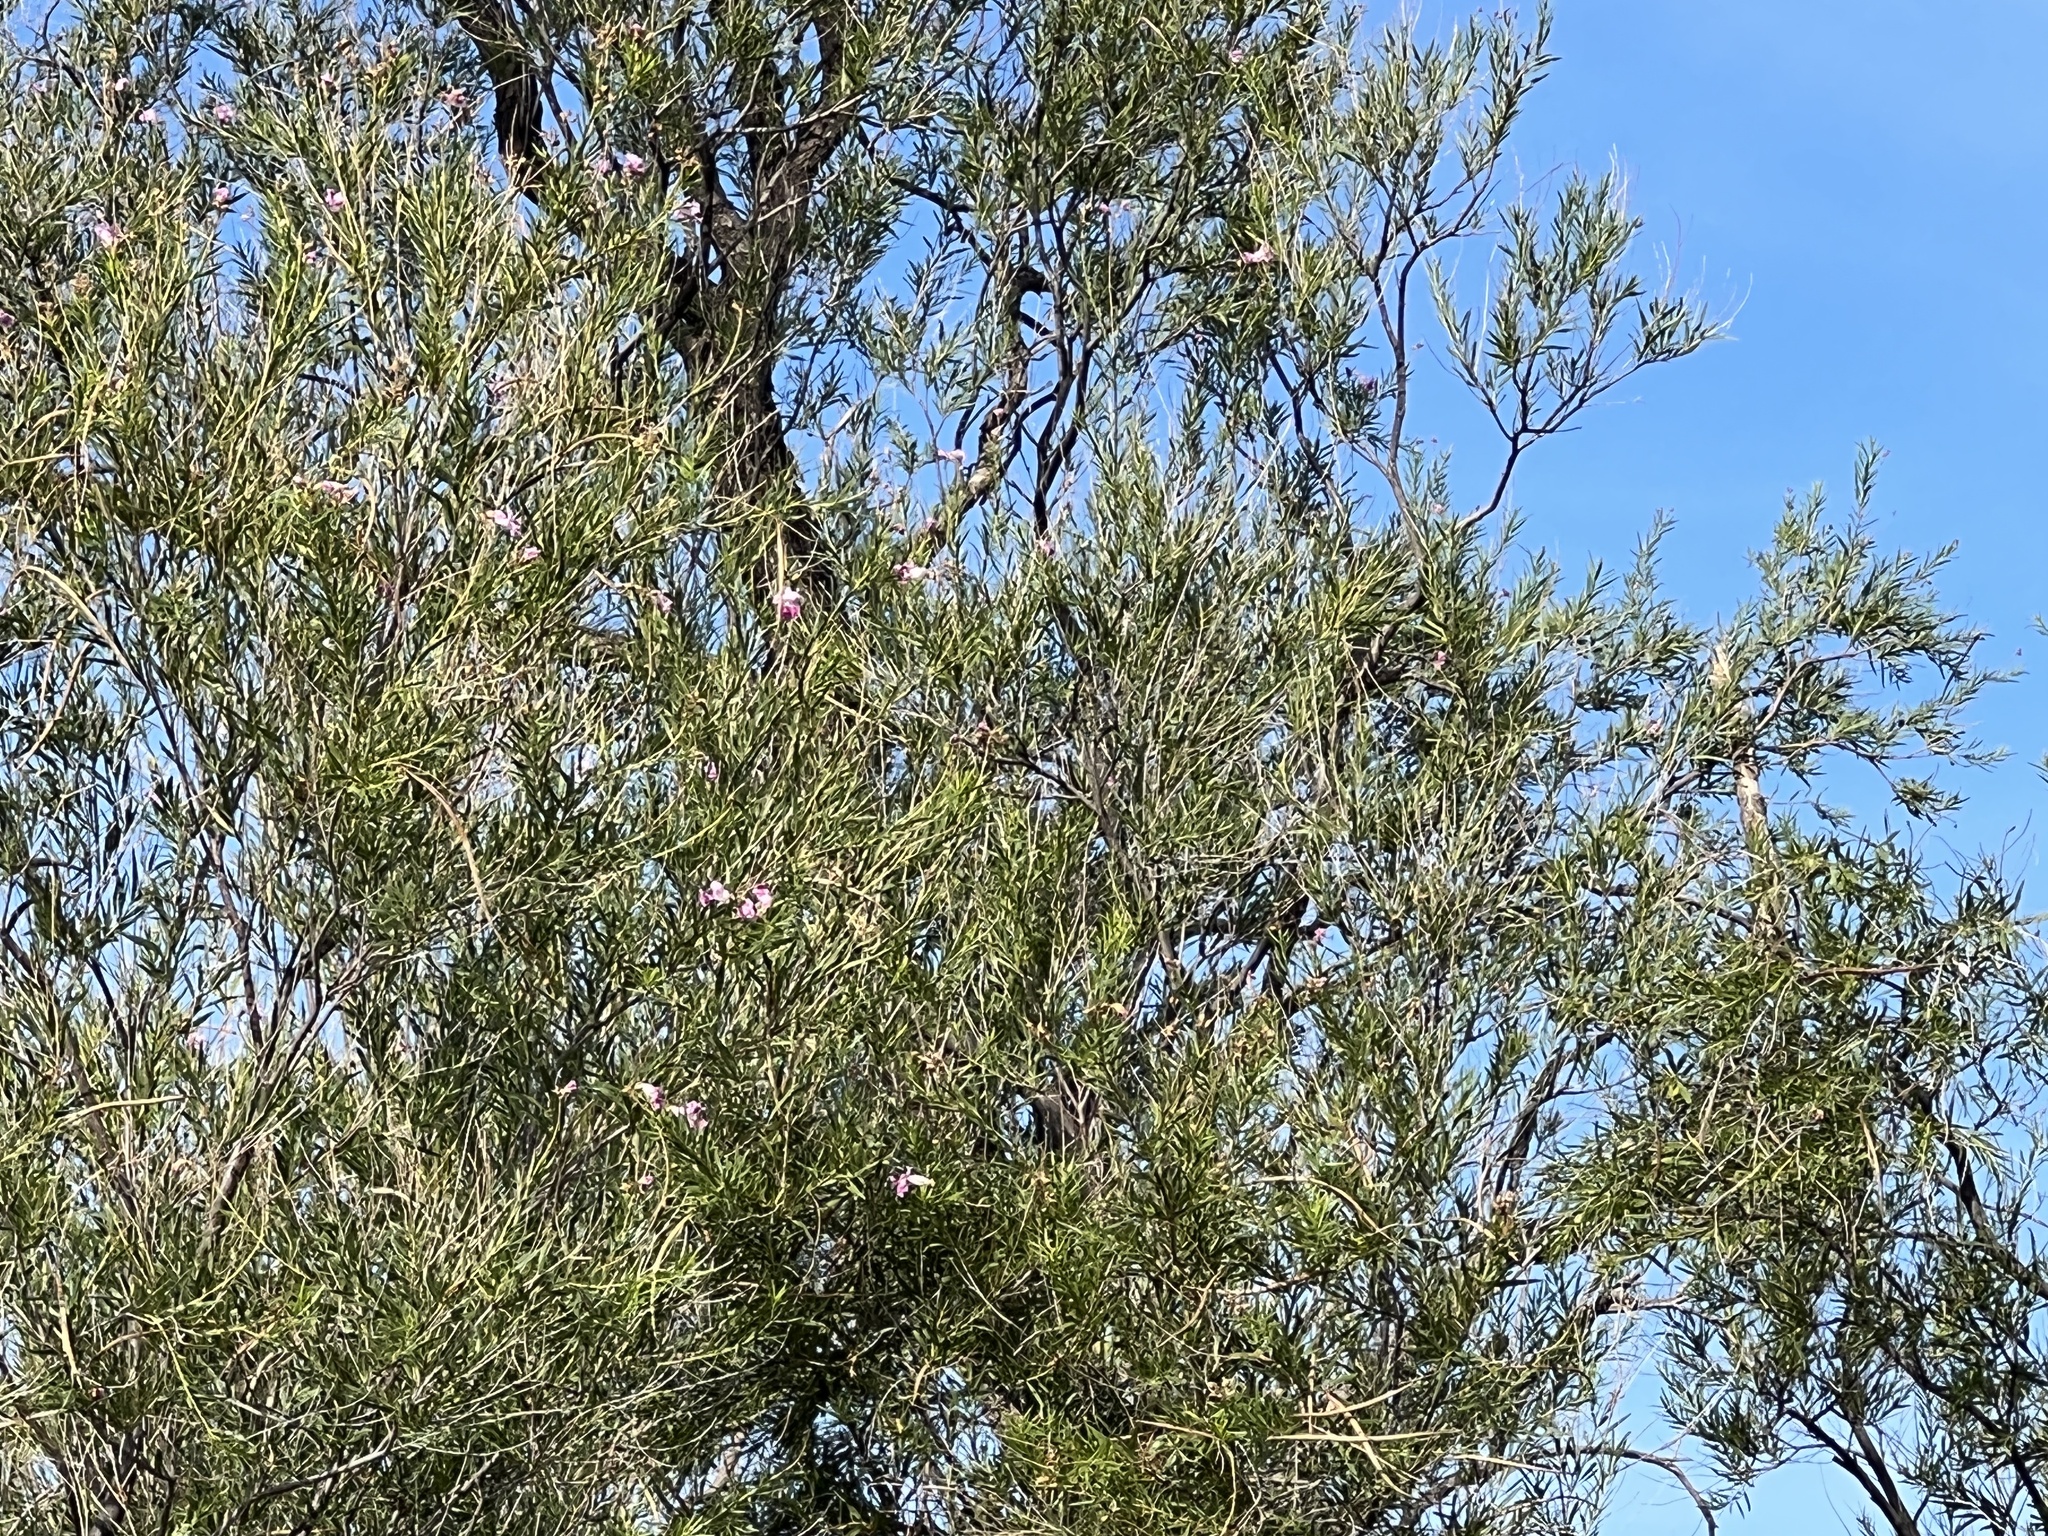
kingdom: Plantae
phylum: Tracheophyta
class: Magnoliopsida
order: Lamiales
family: Bignoniaceae
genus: Chilopsis
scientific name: Chilopsis linearis
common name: Desert-willow
